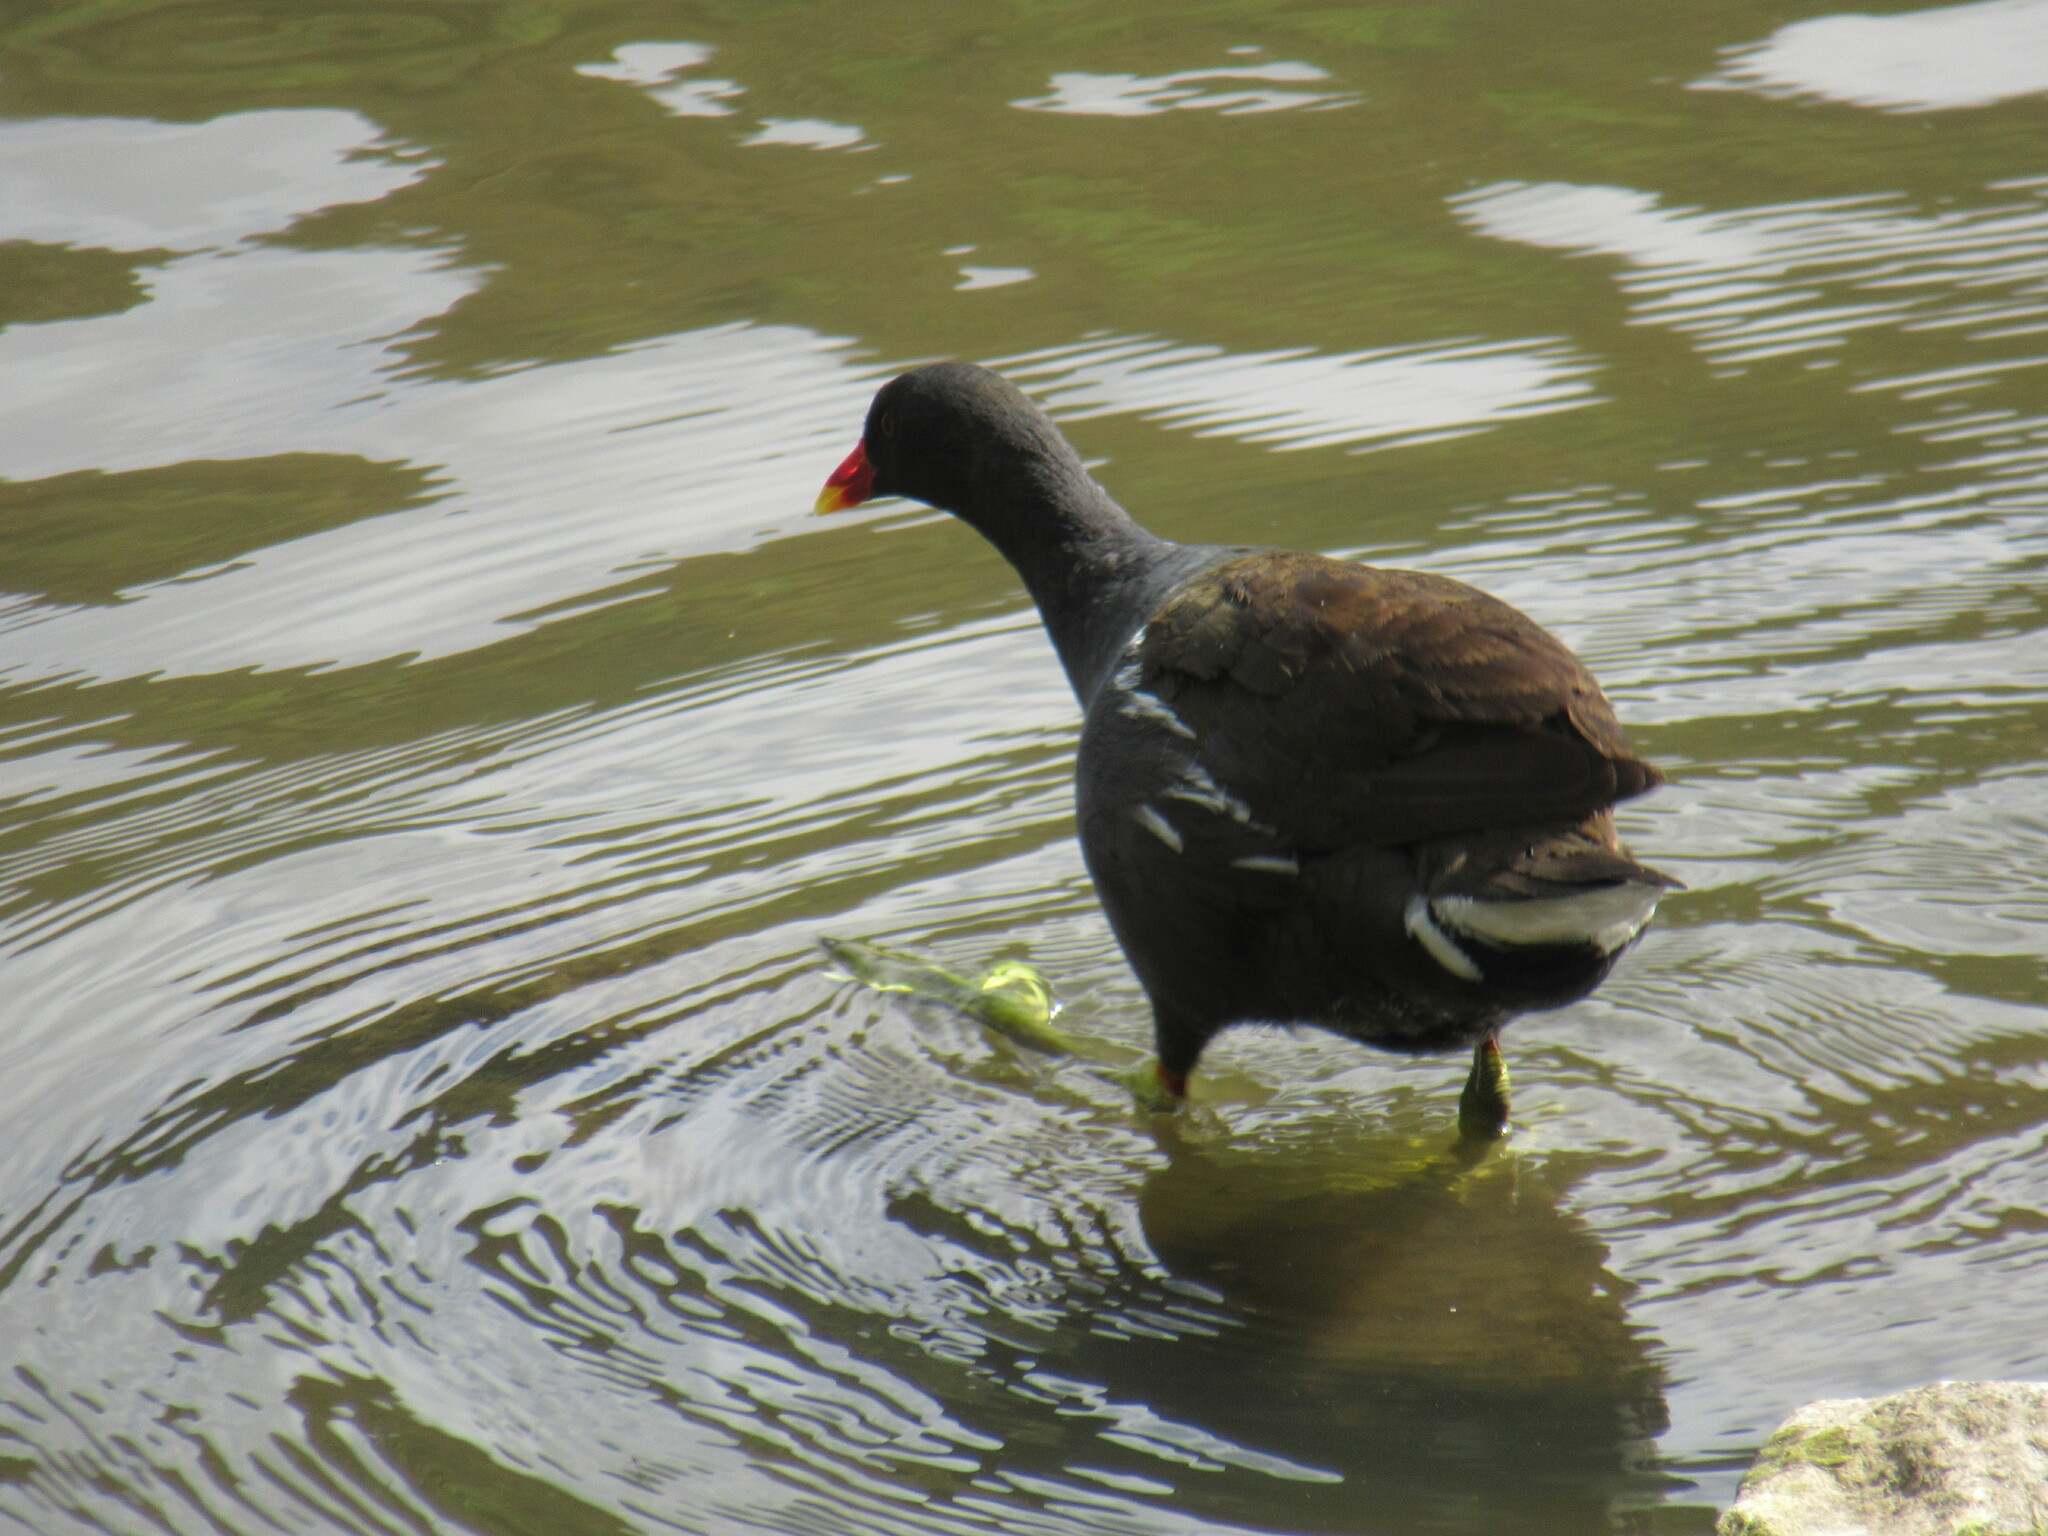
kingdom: Animalia
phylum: Chordata
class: Aves
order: Gruiformes
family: Rallidae
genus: Gallinula
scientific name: Gallinula chloropus
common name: Common moorhen
